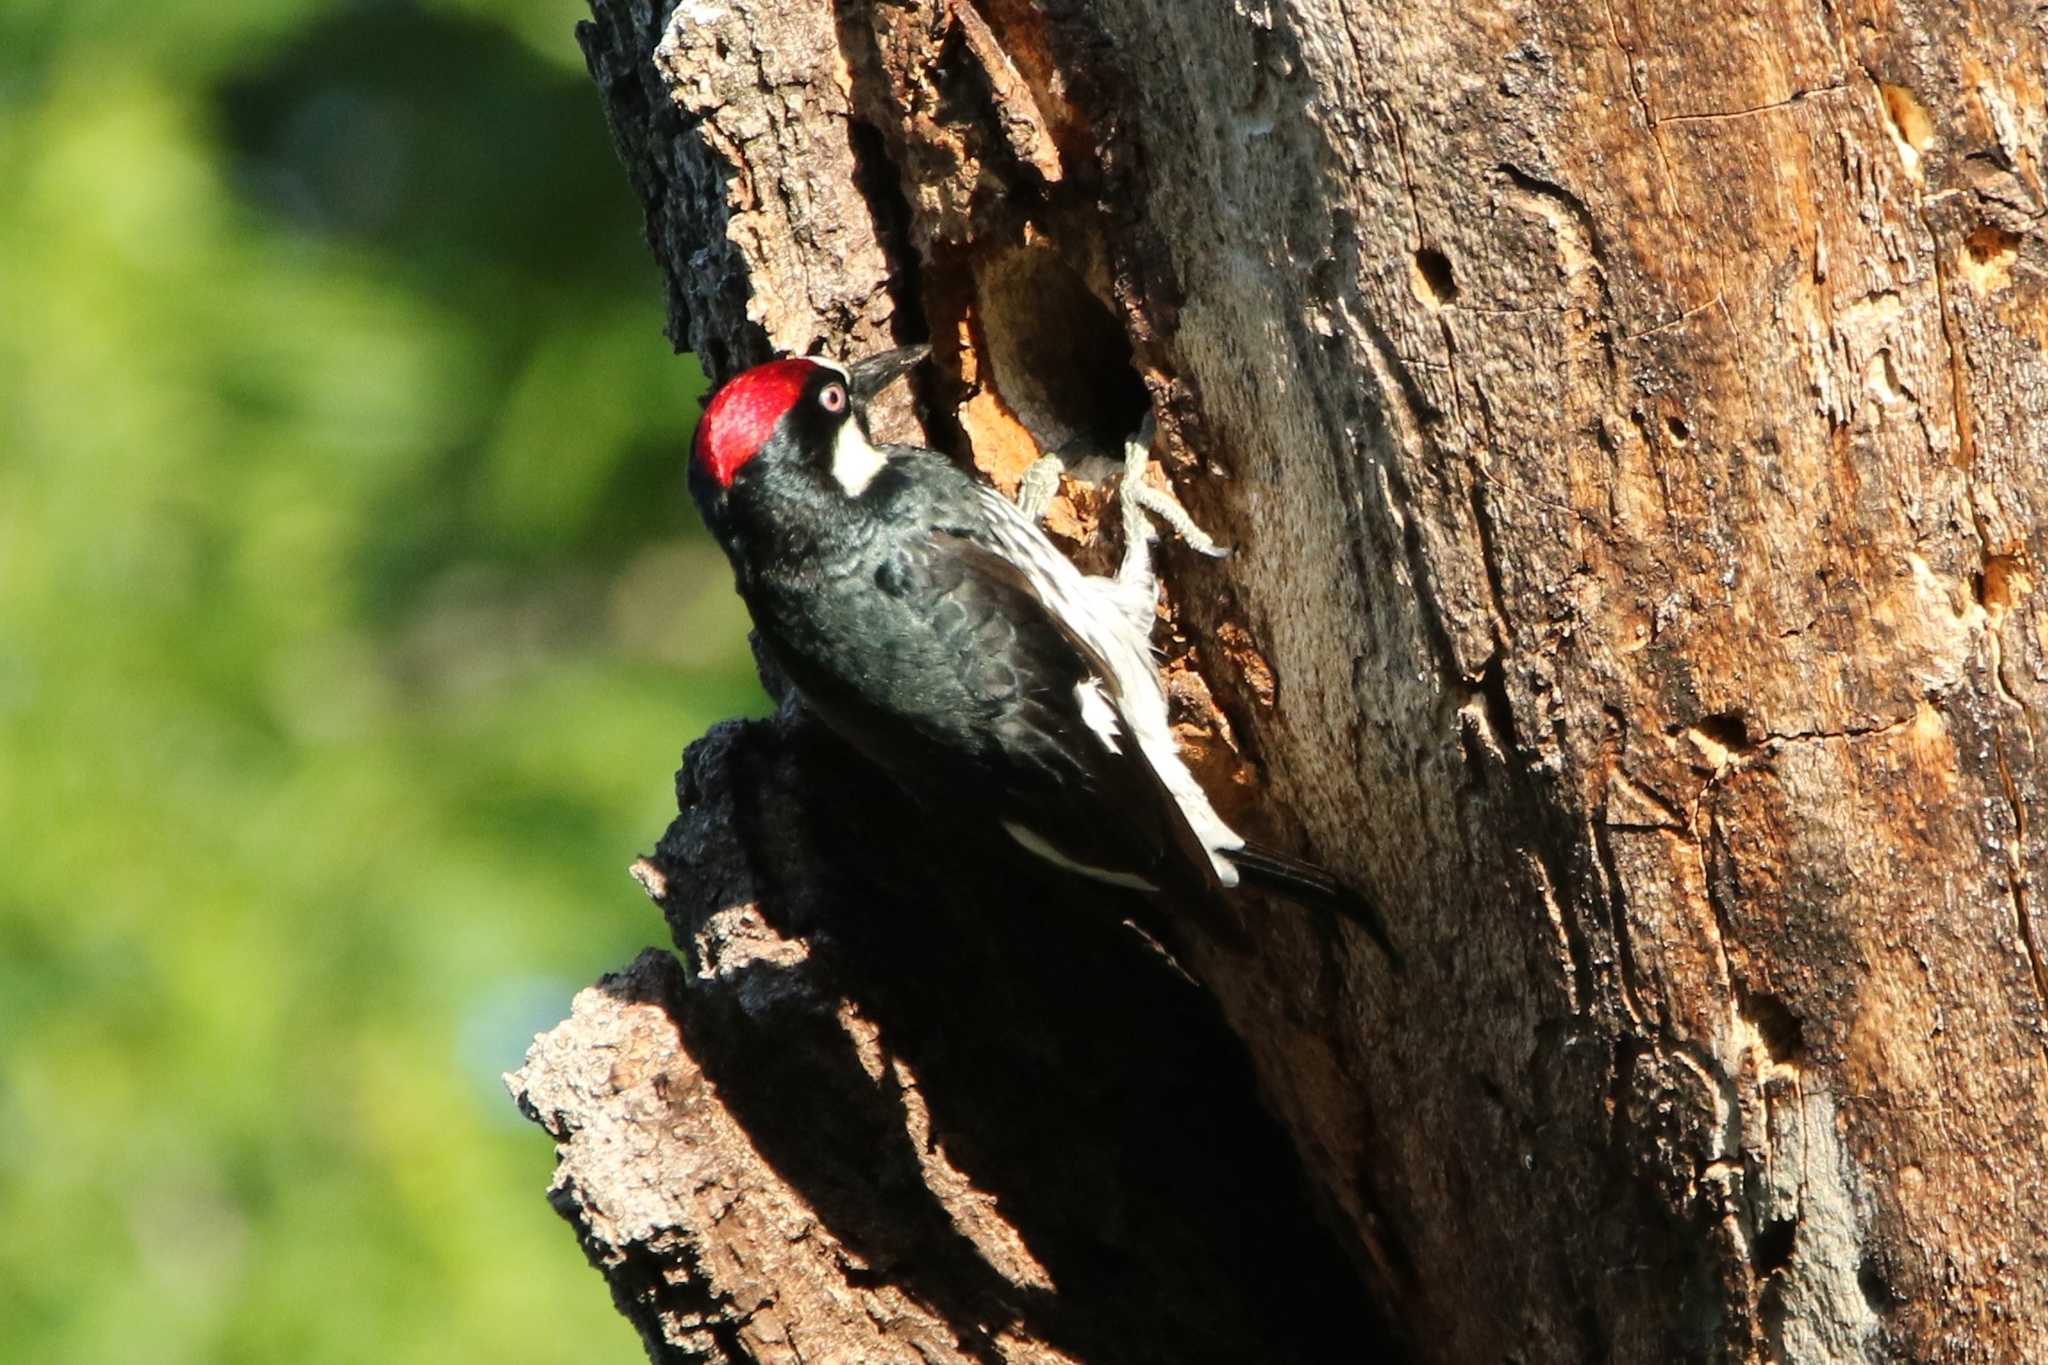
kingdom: Animalia
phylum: Chordata
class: Aves
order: Piciformes
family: Picidae
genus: Melanerpes
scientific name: Melanerpes formicivorus
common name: Acorn woodpecker
